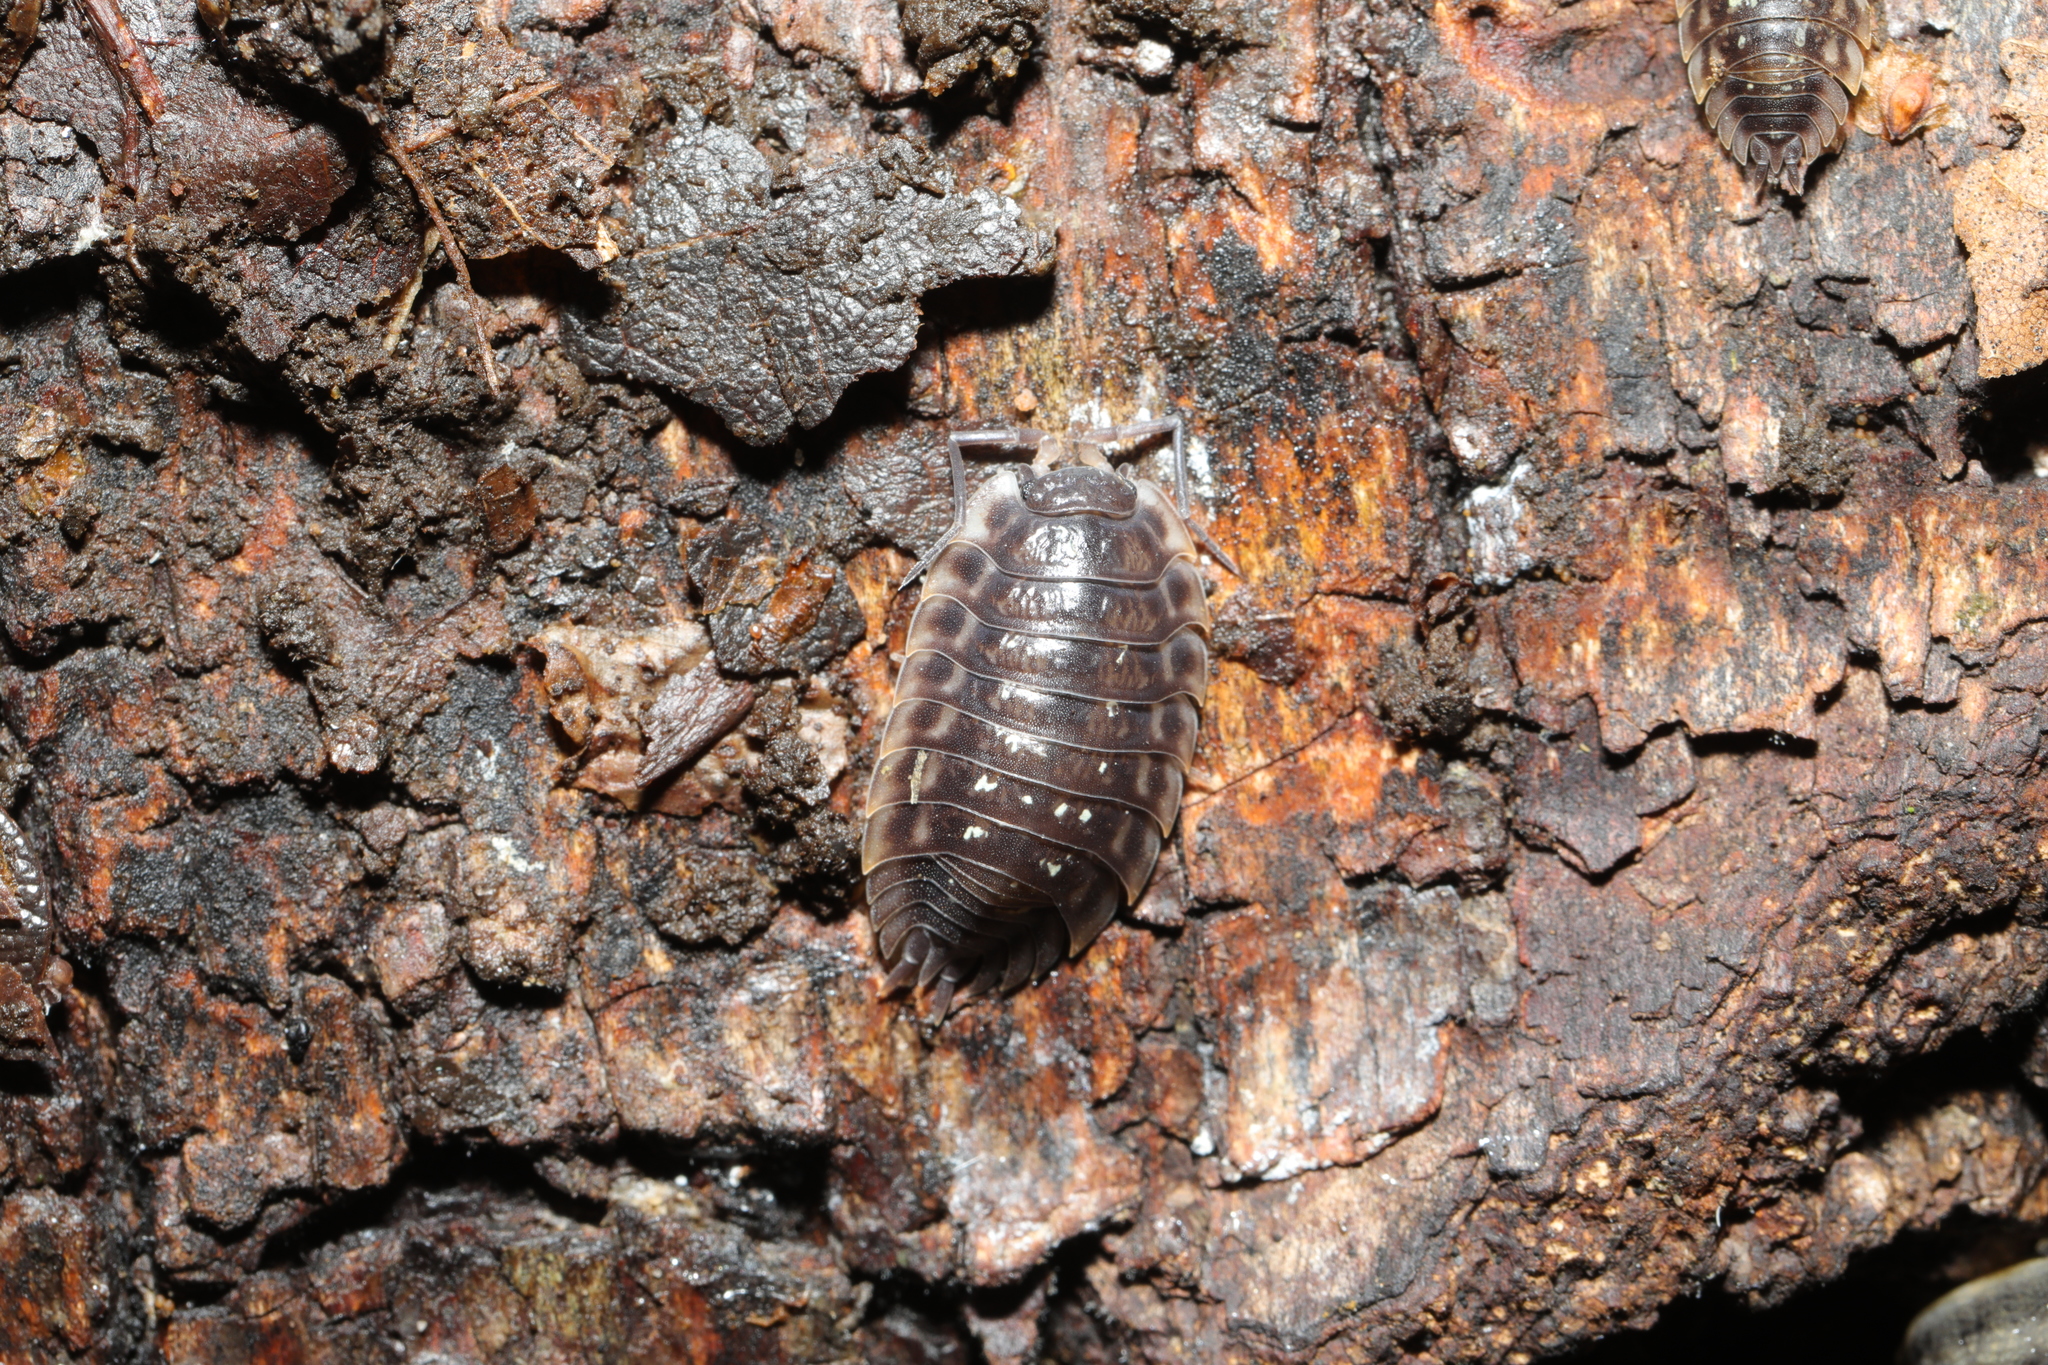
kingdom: Animalia
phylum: Arthropoda
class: Malacostraca
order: Isopoda
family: Oniscidae
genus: Oniscus
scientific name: Oniscus asellus
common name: Common shiny woodlouse
